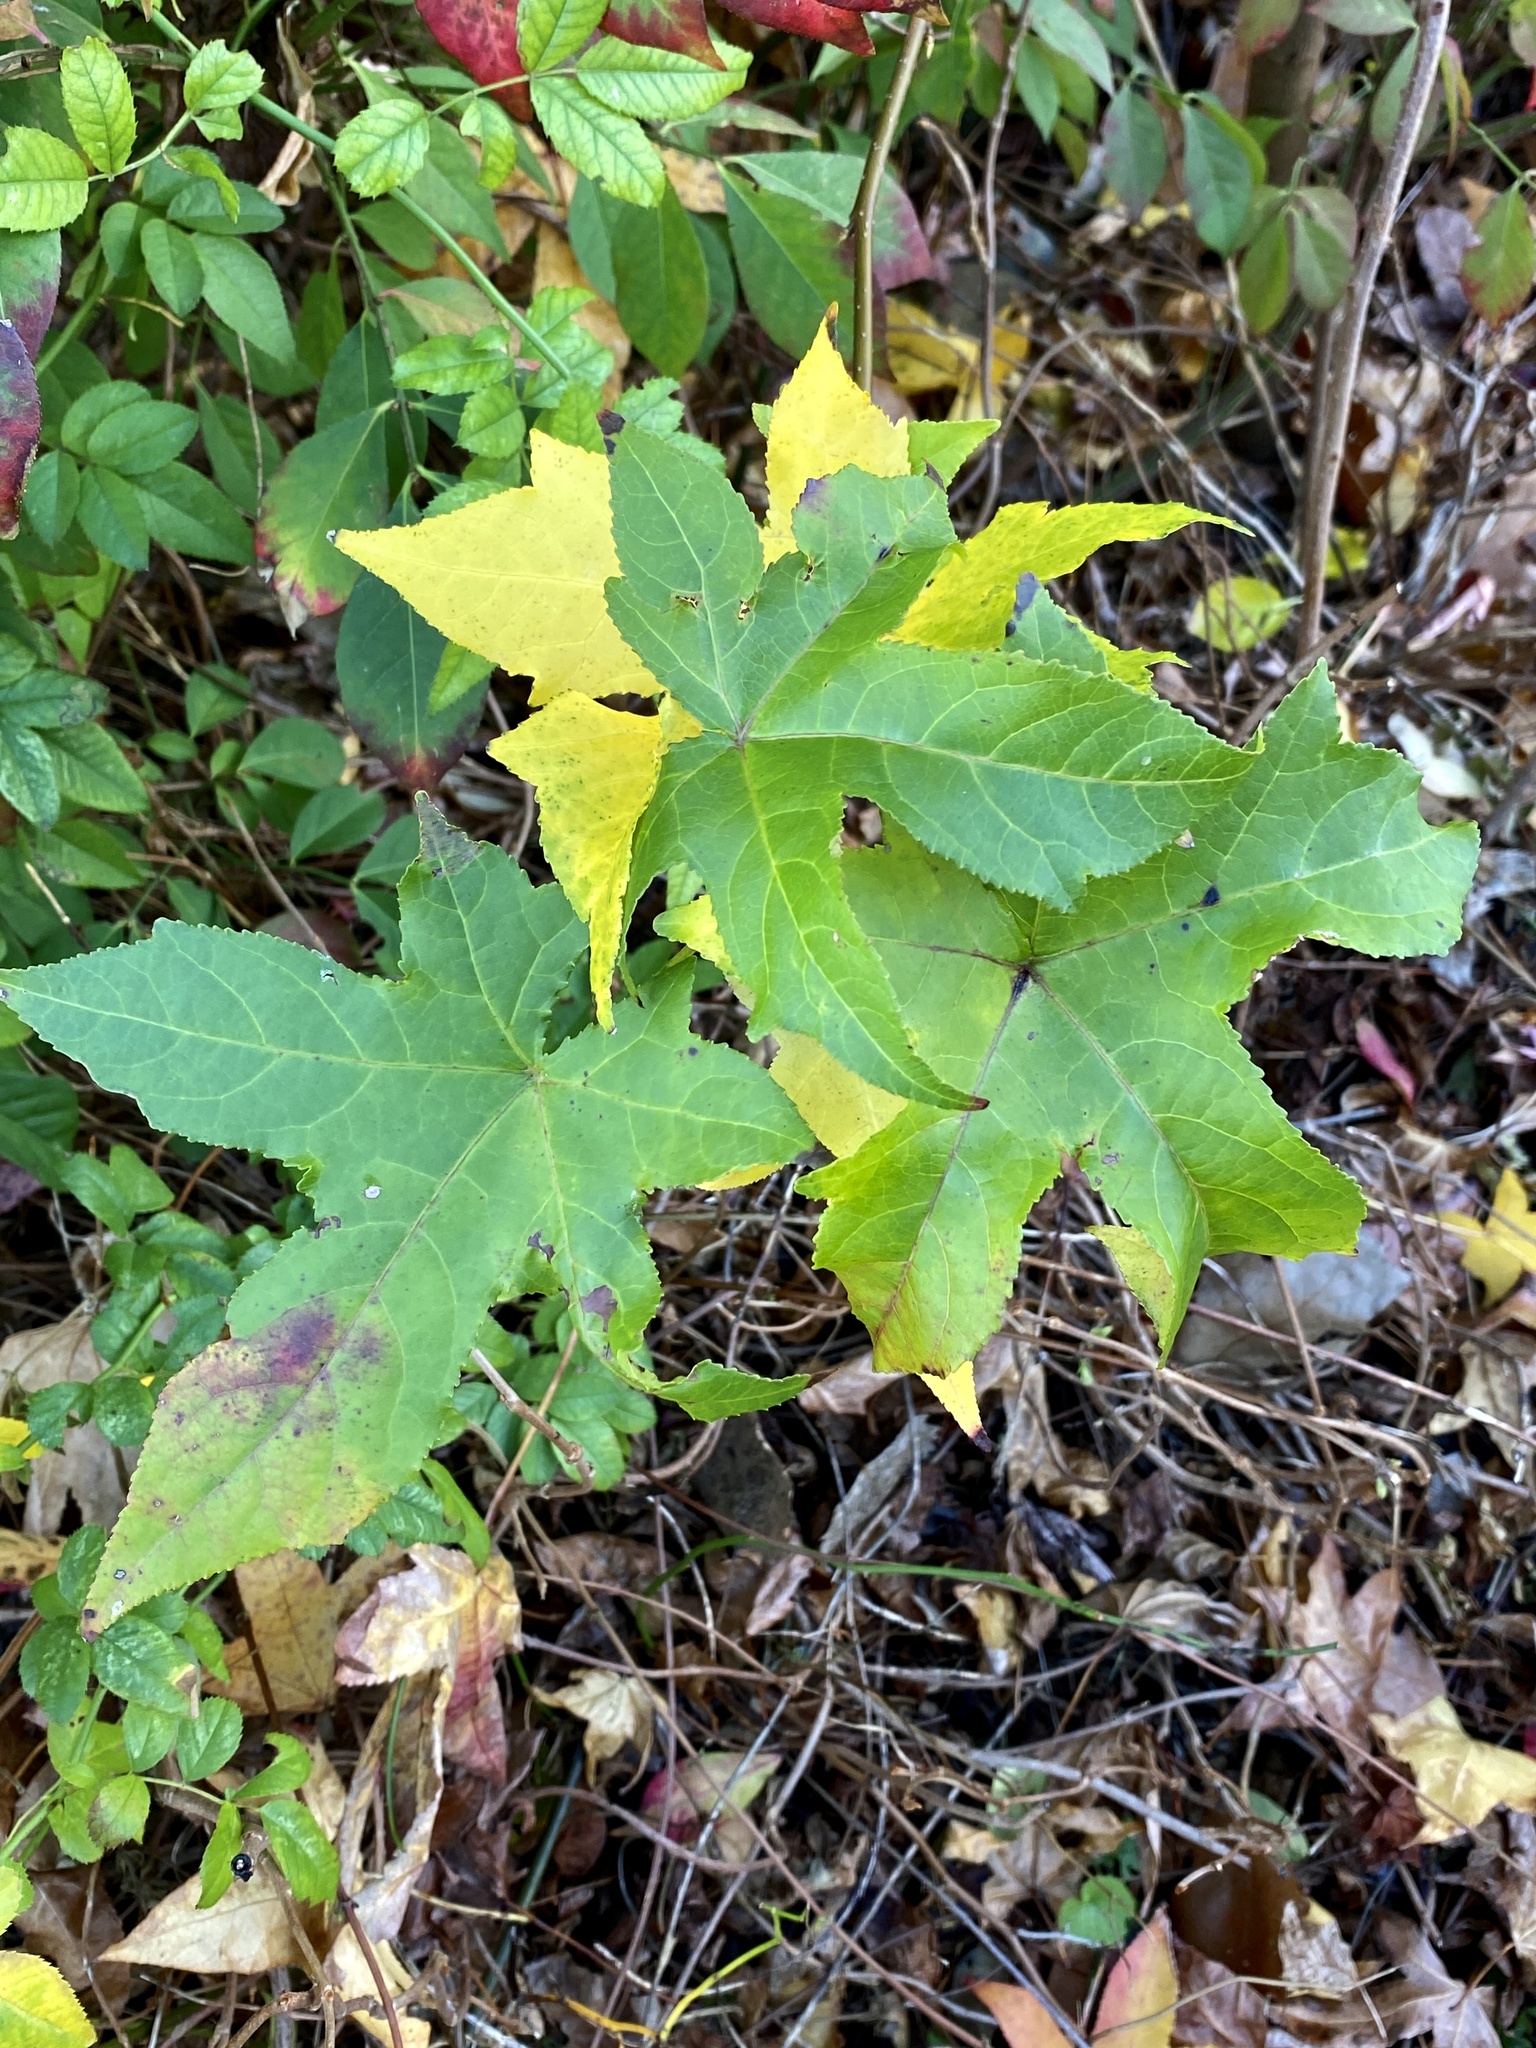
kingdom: Plantae
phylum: Tracheophyta
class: Magnoliopsida
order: Saxifragales
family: Altingiaceae
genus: Liquidambar
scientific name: Liquidambar styraciflua
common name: Sweet gum
